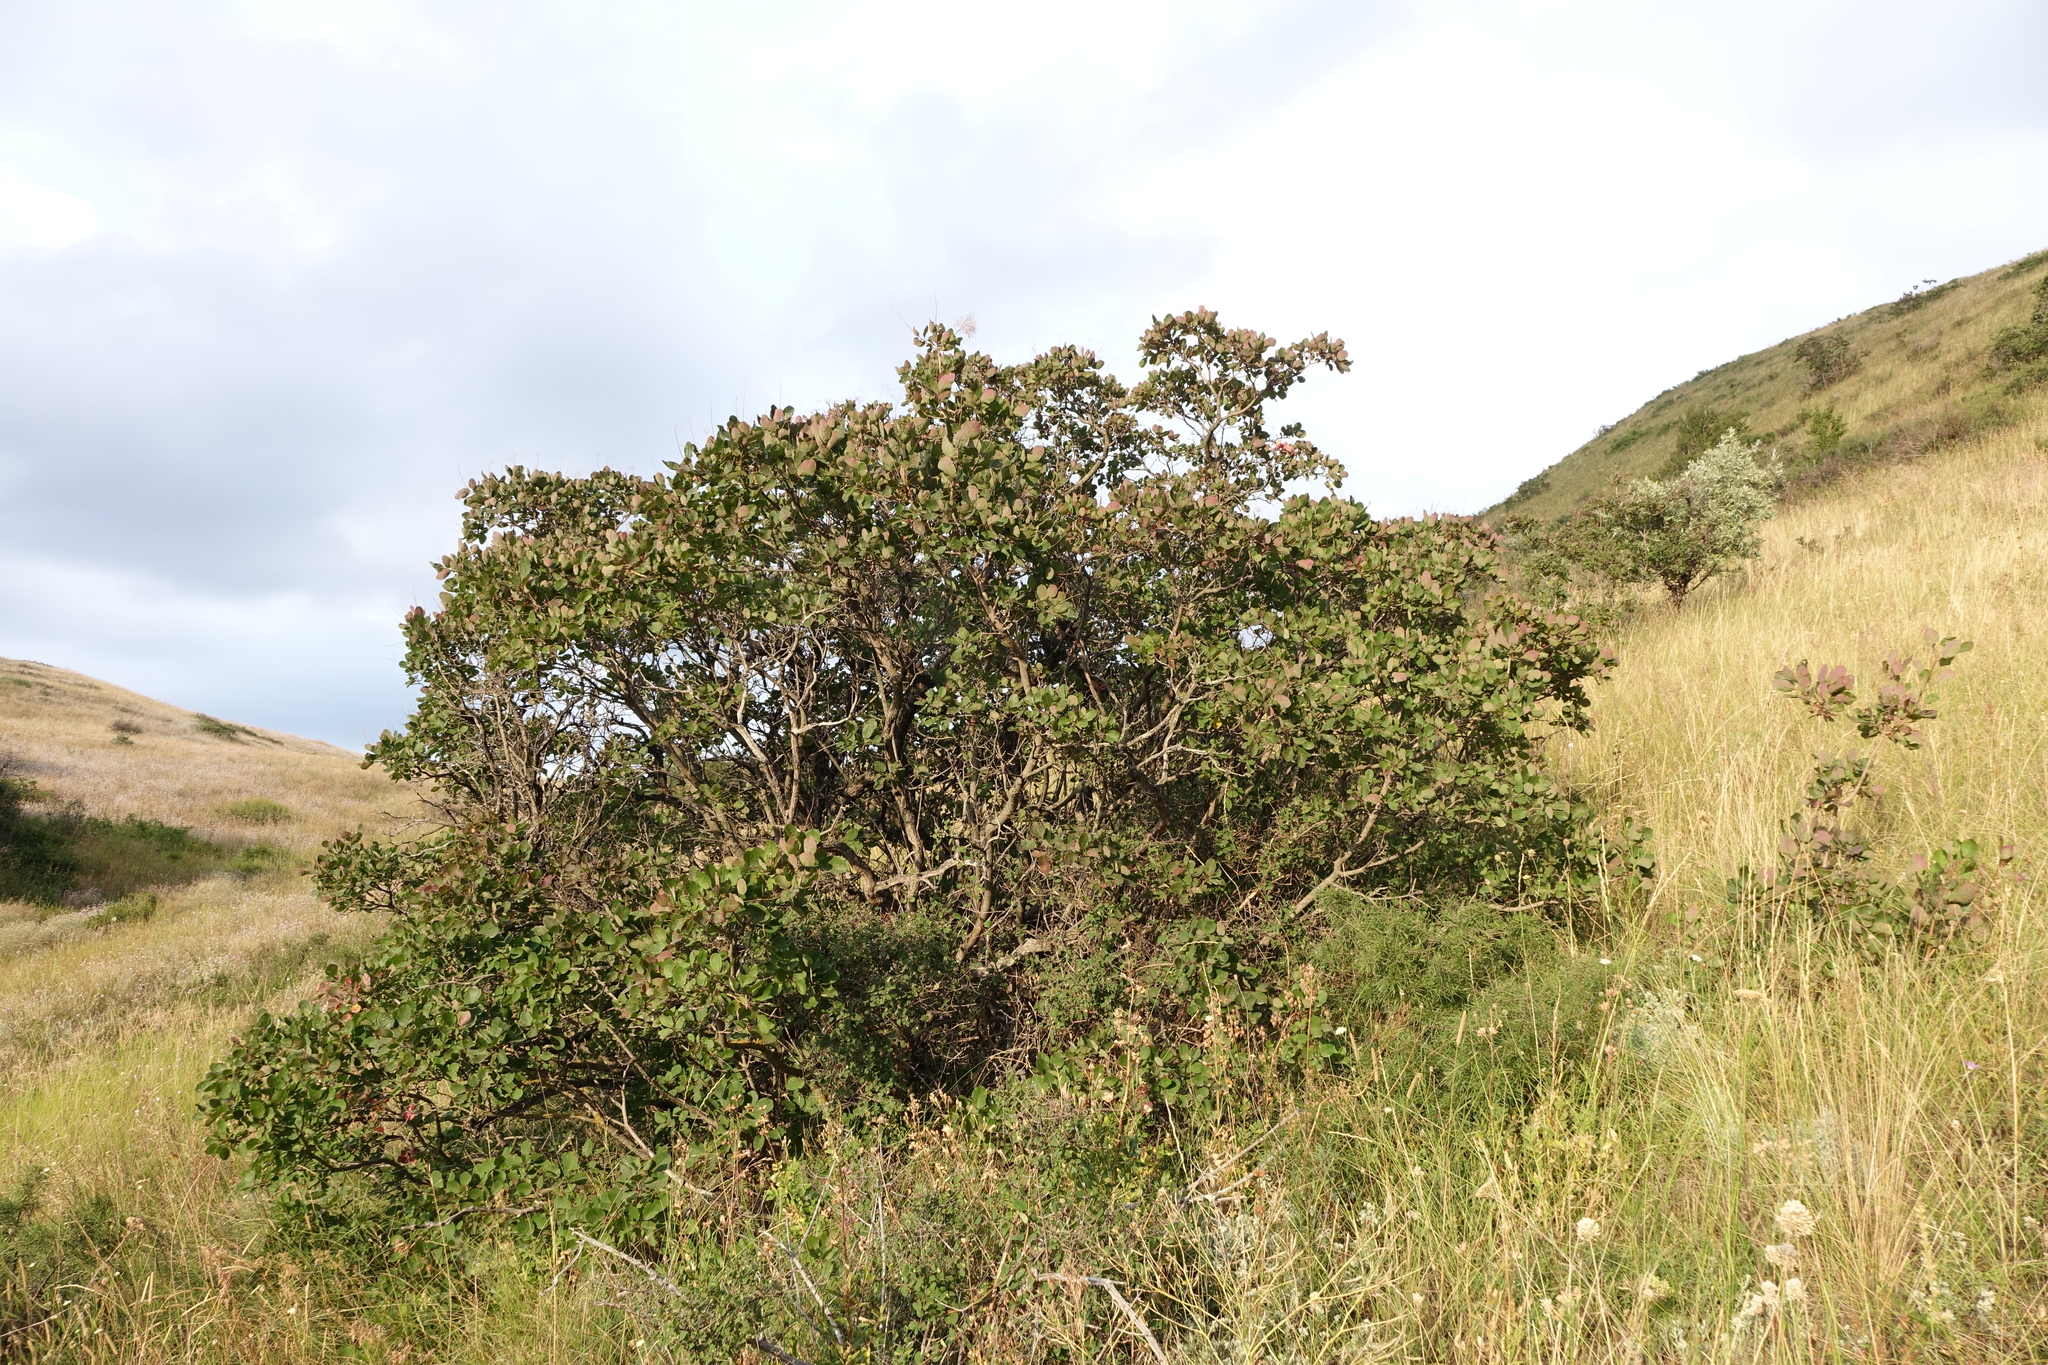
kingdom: Plantae
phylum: Tracheophyta
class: Magnoliopsida
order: Sapindales
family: Anacardiaceae
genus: Cotinus
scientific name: Cotinus coggygria
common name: Smoke-tree
